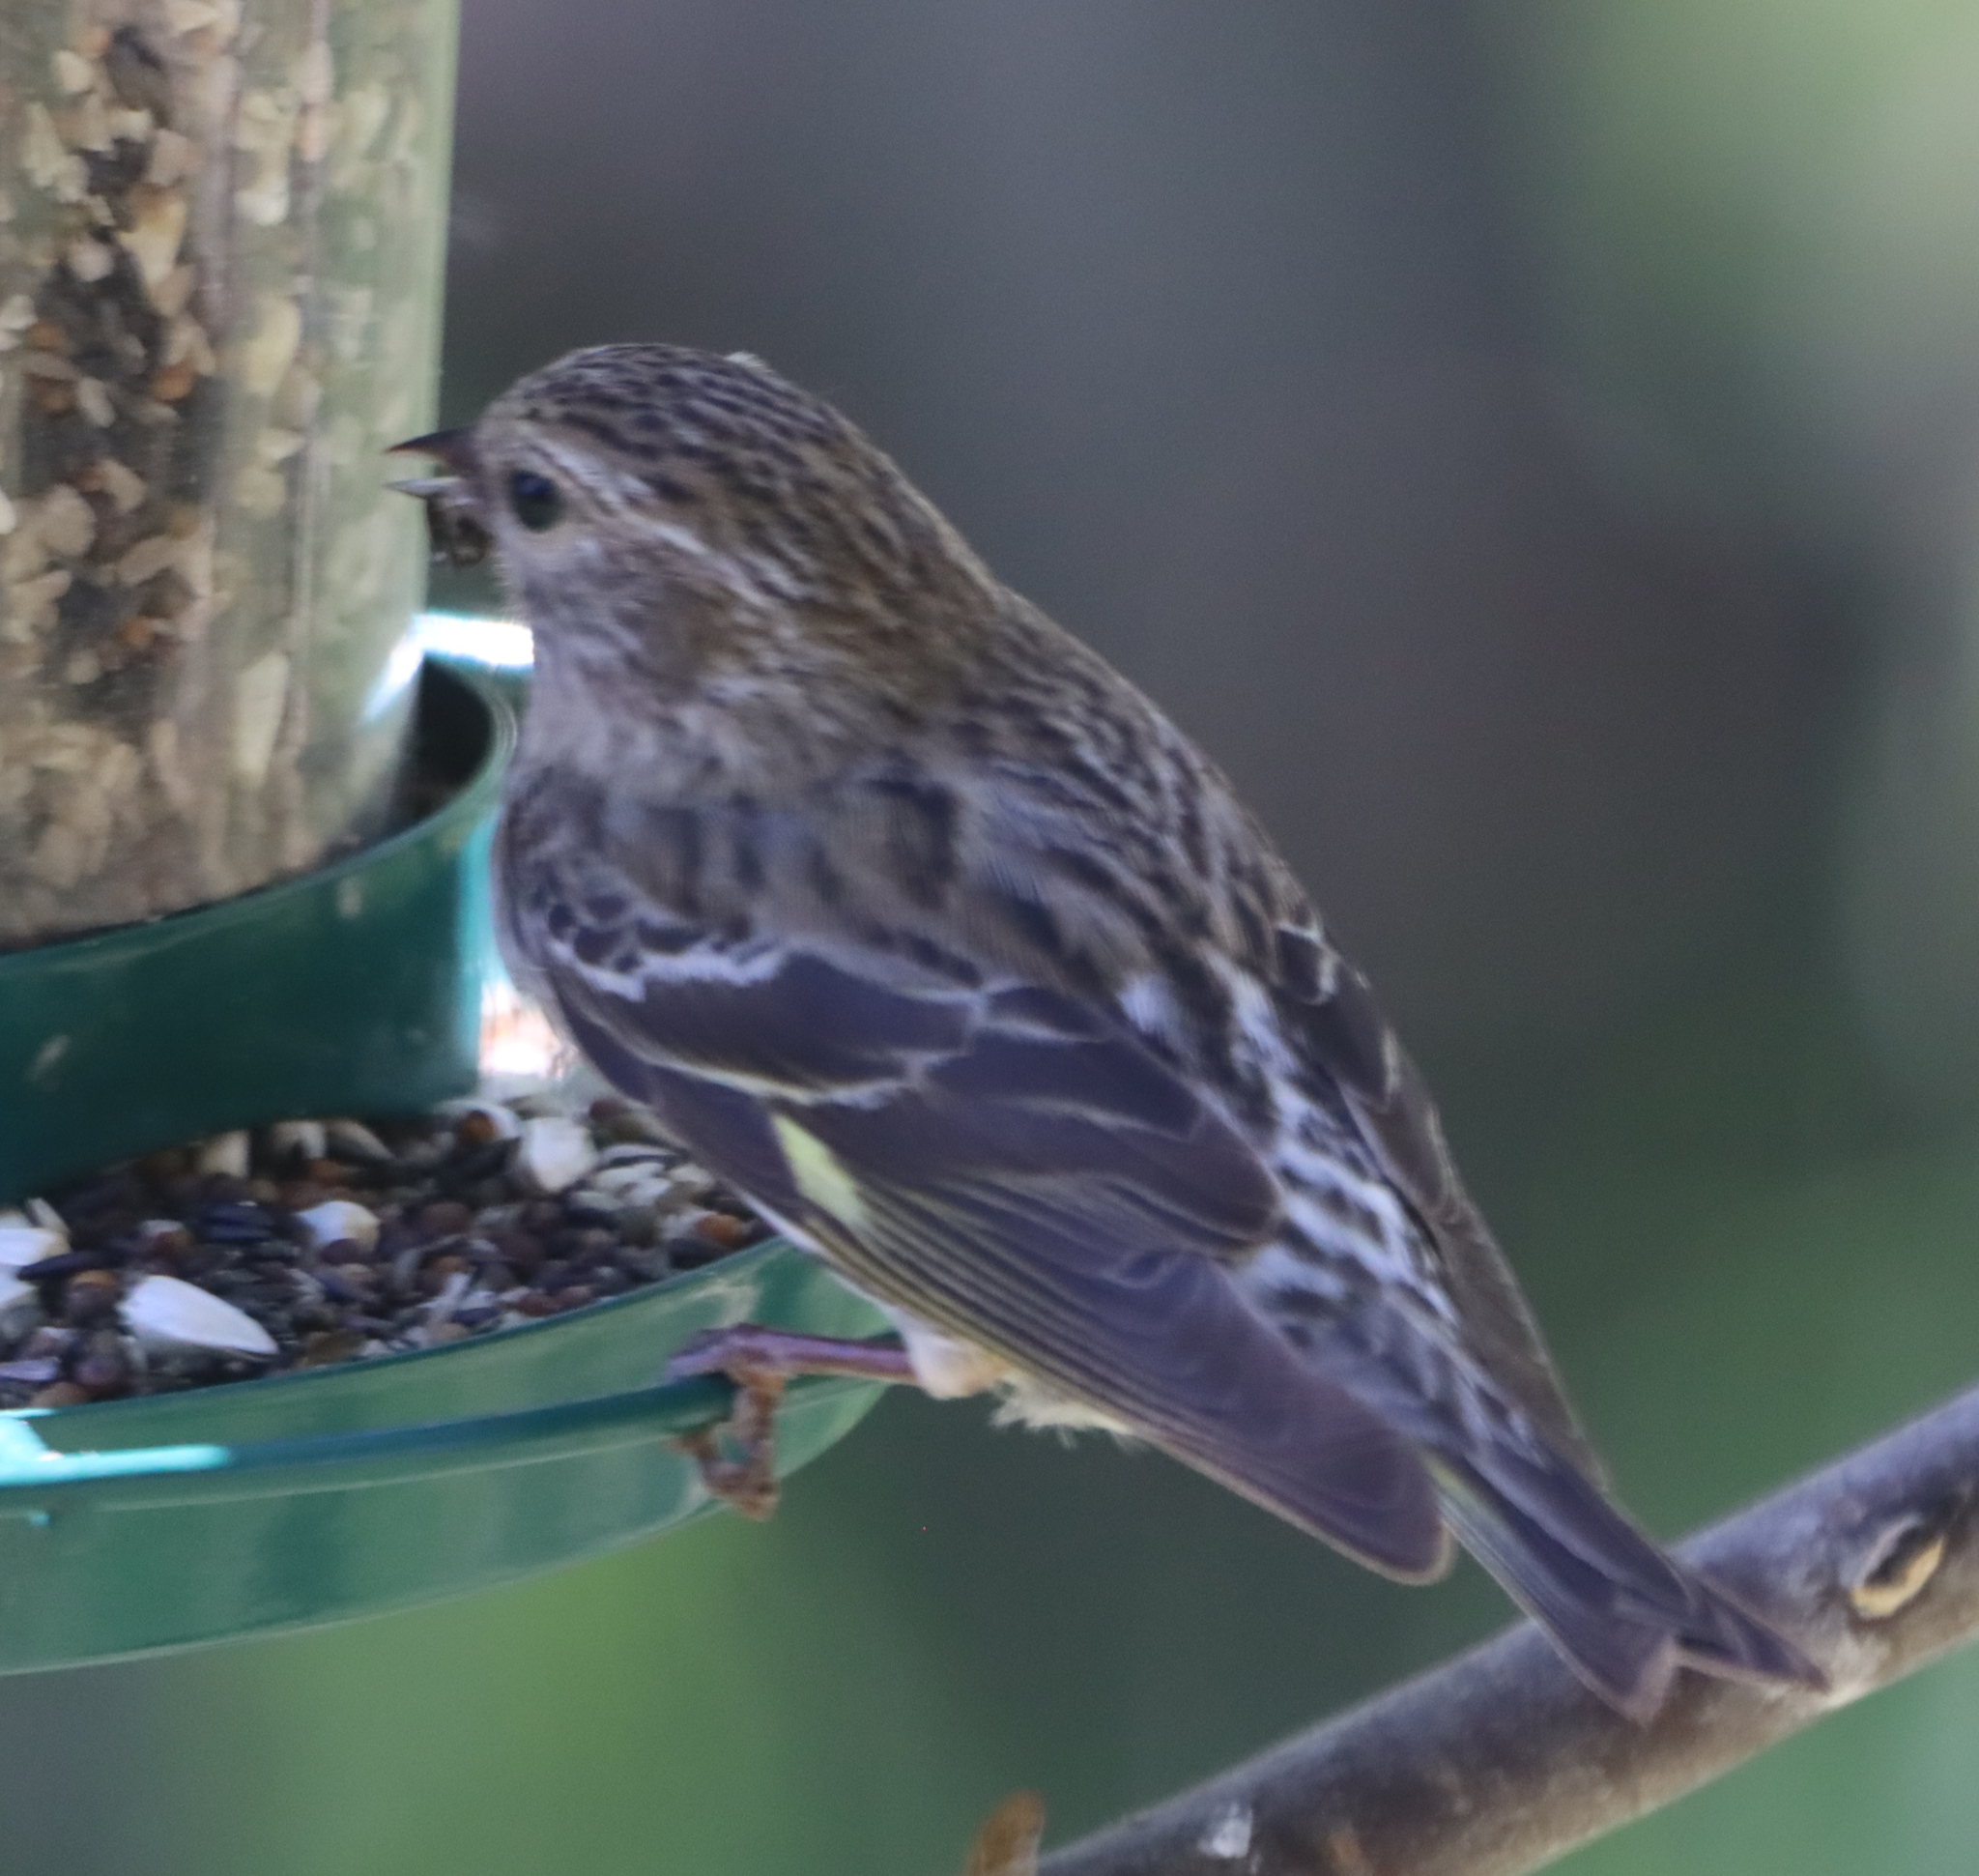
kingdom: Animalia
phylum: Chordata
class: Aves
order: Passeriformes
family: Fringillidae
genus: Spinus
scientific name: Spinus pinus
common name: Pine siskin
